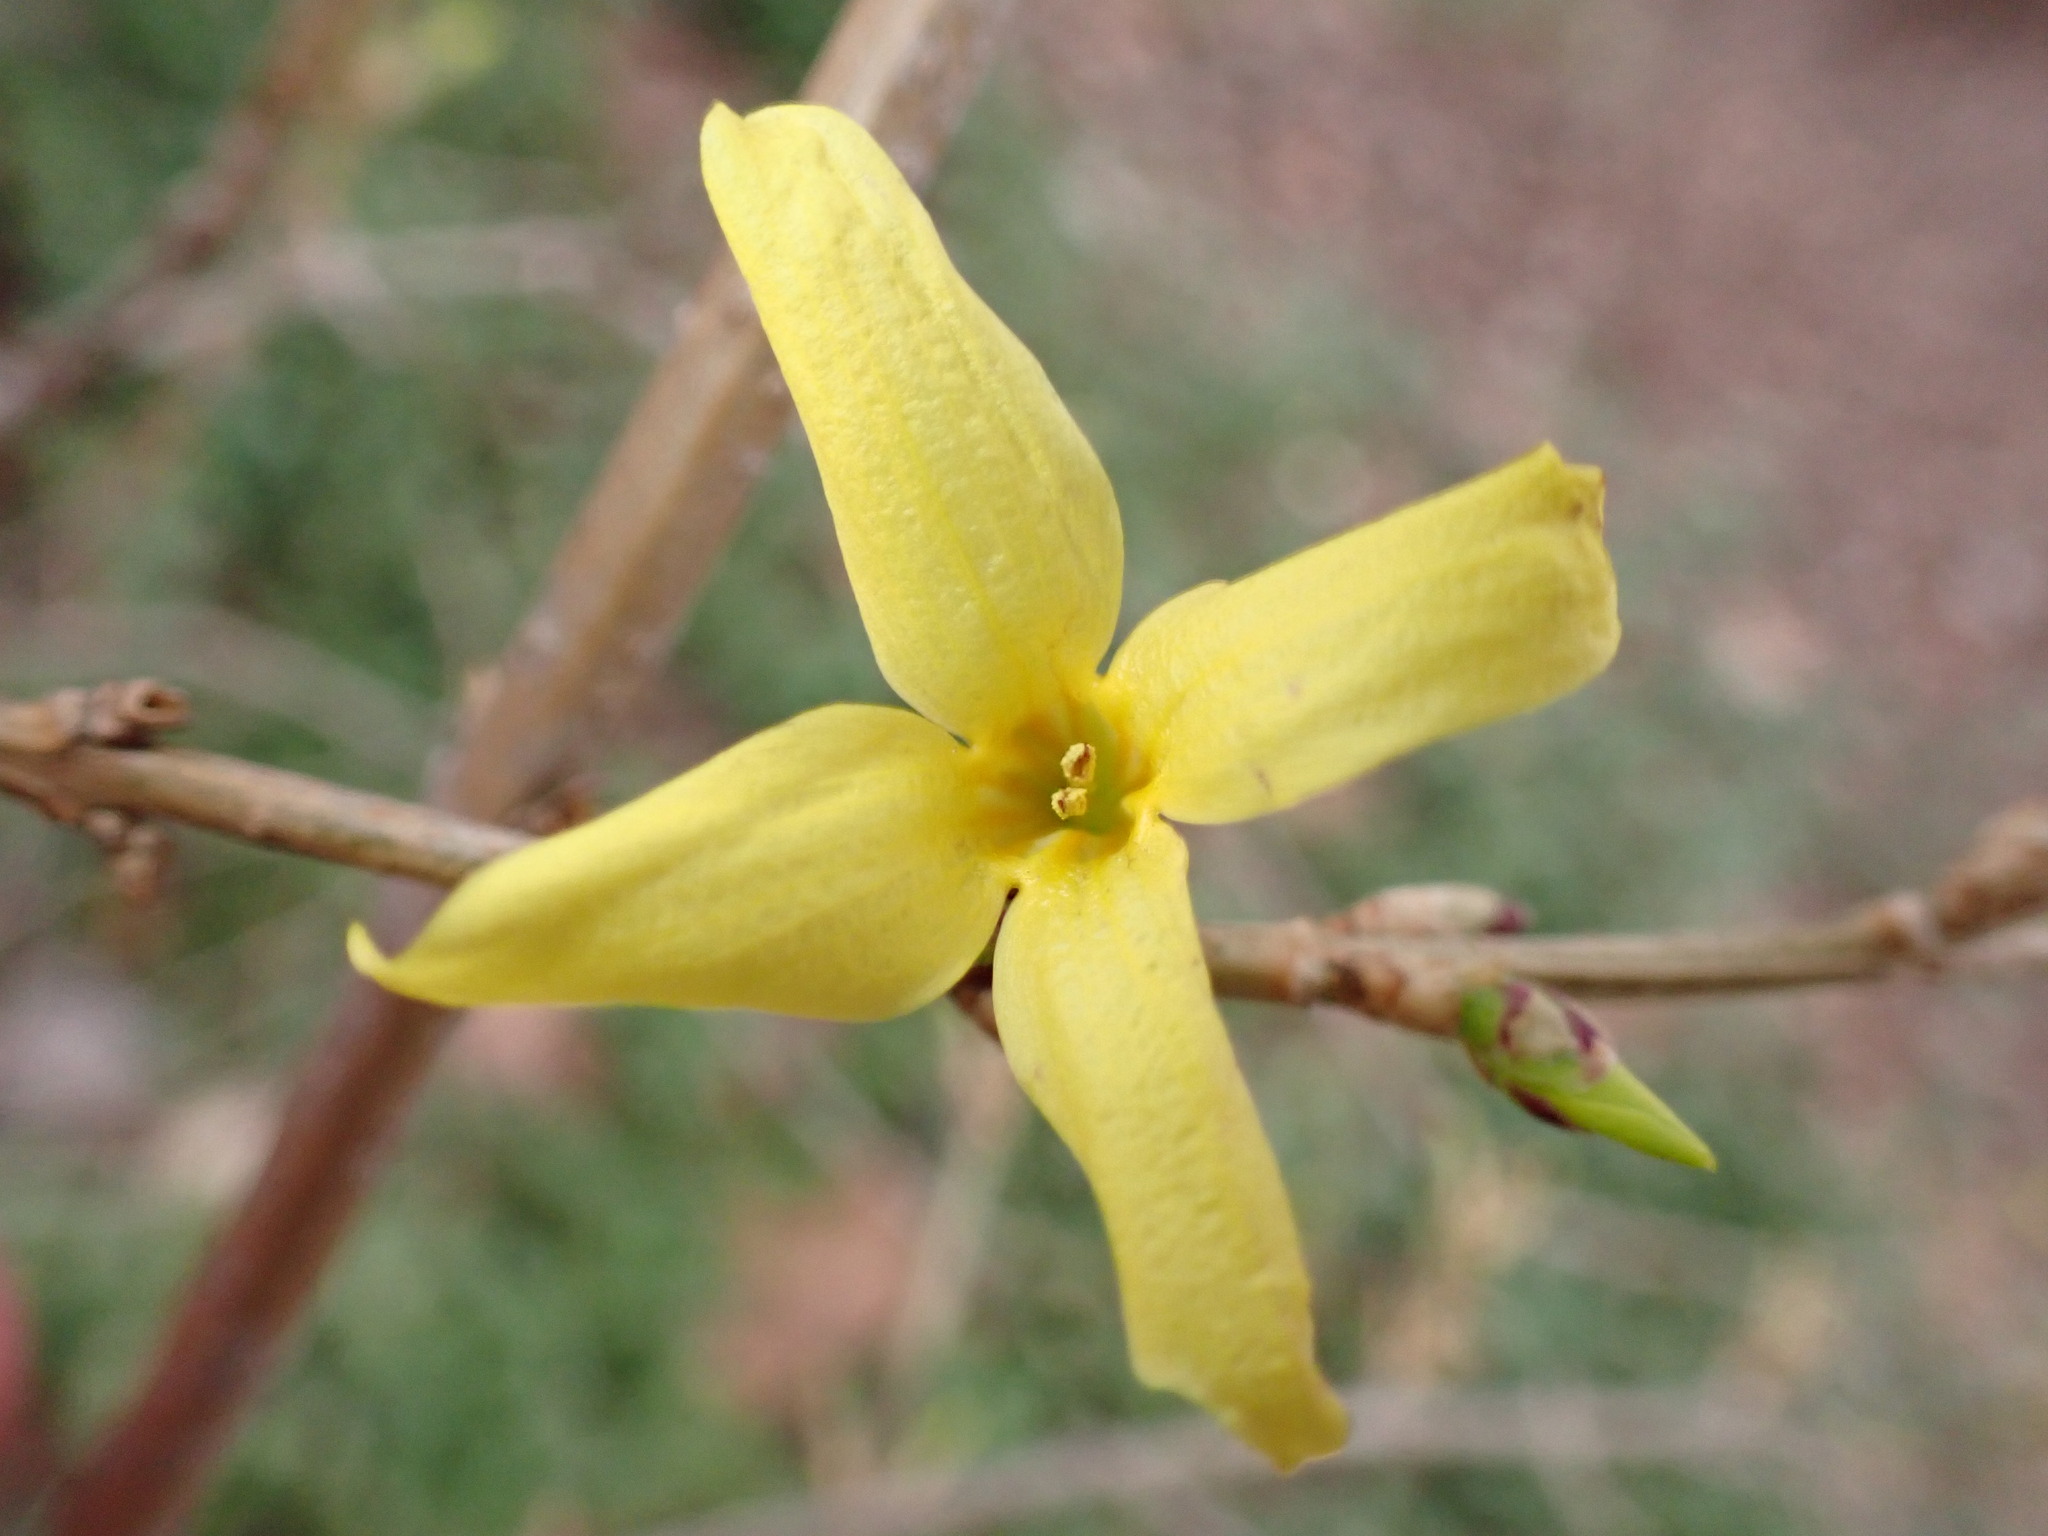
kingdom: Plantae
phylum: Tracheophyta
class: Magnoliopsida
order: Lamiales
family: Oleaceae
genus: Forsythia
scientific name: Forsythia suspensa
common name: Weeping forsythia
